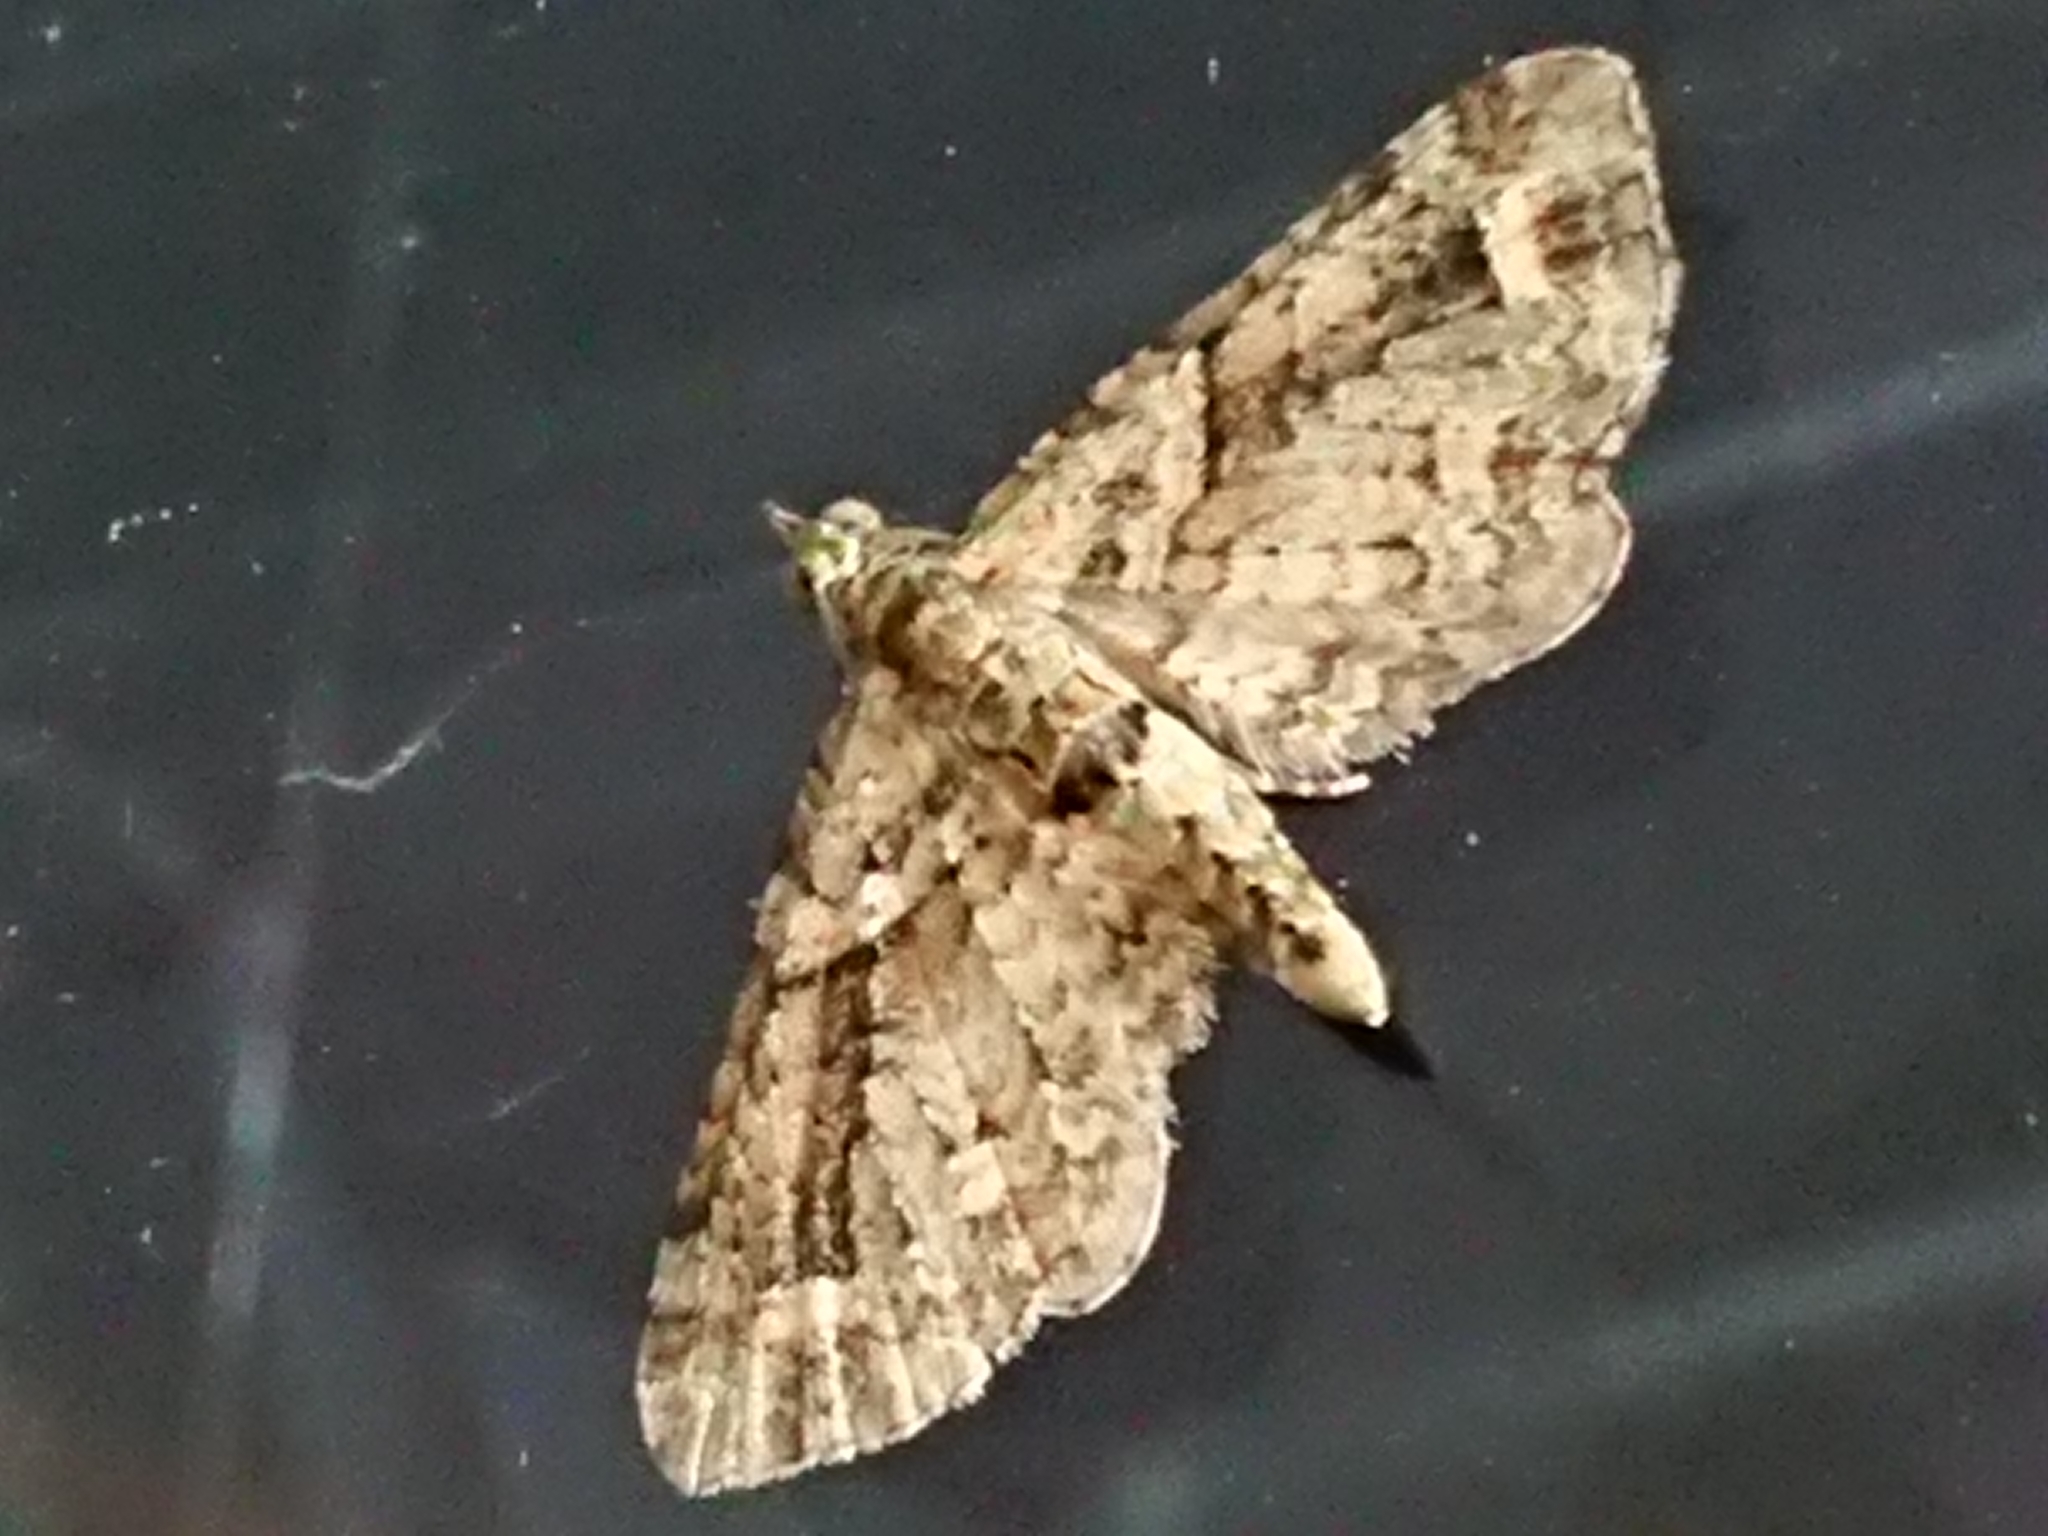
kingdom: Animalia
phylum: Arthropoda
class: Insecta
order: Lepidoptera
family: Geometridae
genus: Idaea
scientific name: Idaea mutanda
